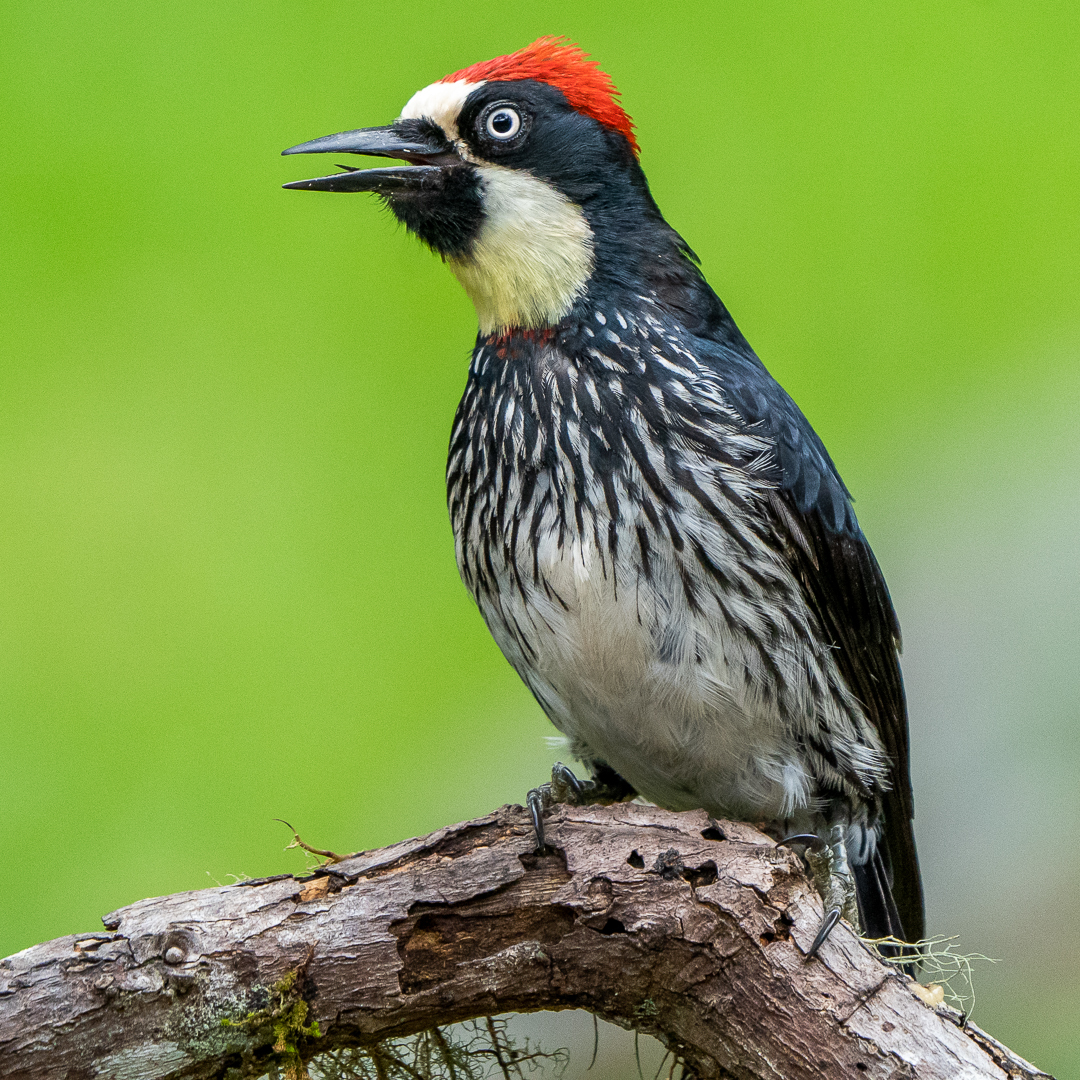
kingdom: Animalia
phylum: Chordata
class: Aves
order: Piciformes
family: Picidae
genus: Melanerpes
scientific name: Melanerpes formicivorus
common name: Acorn woodpecker
